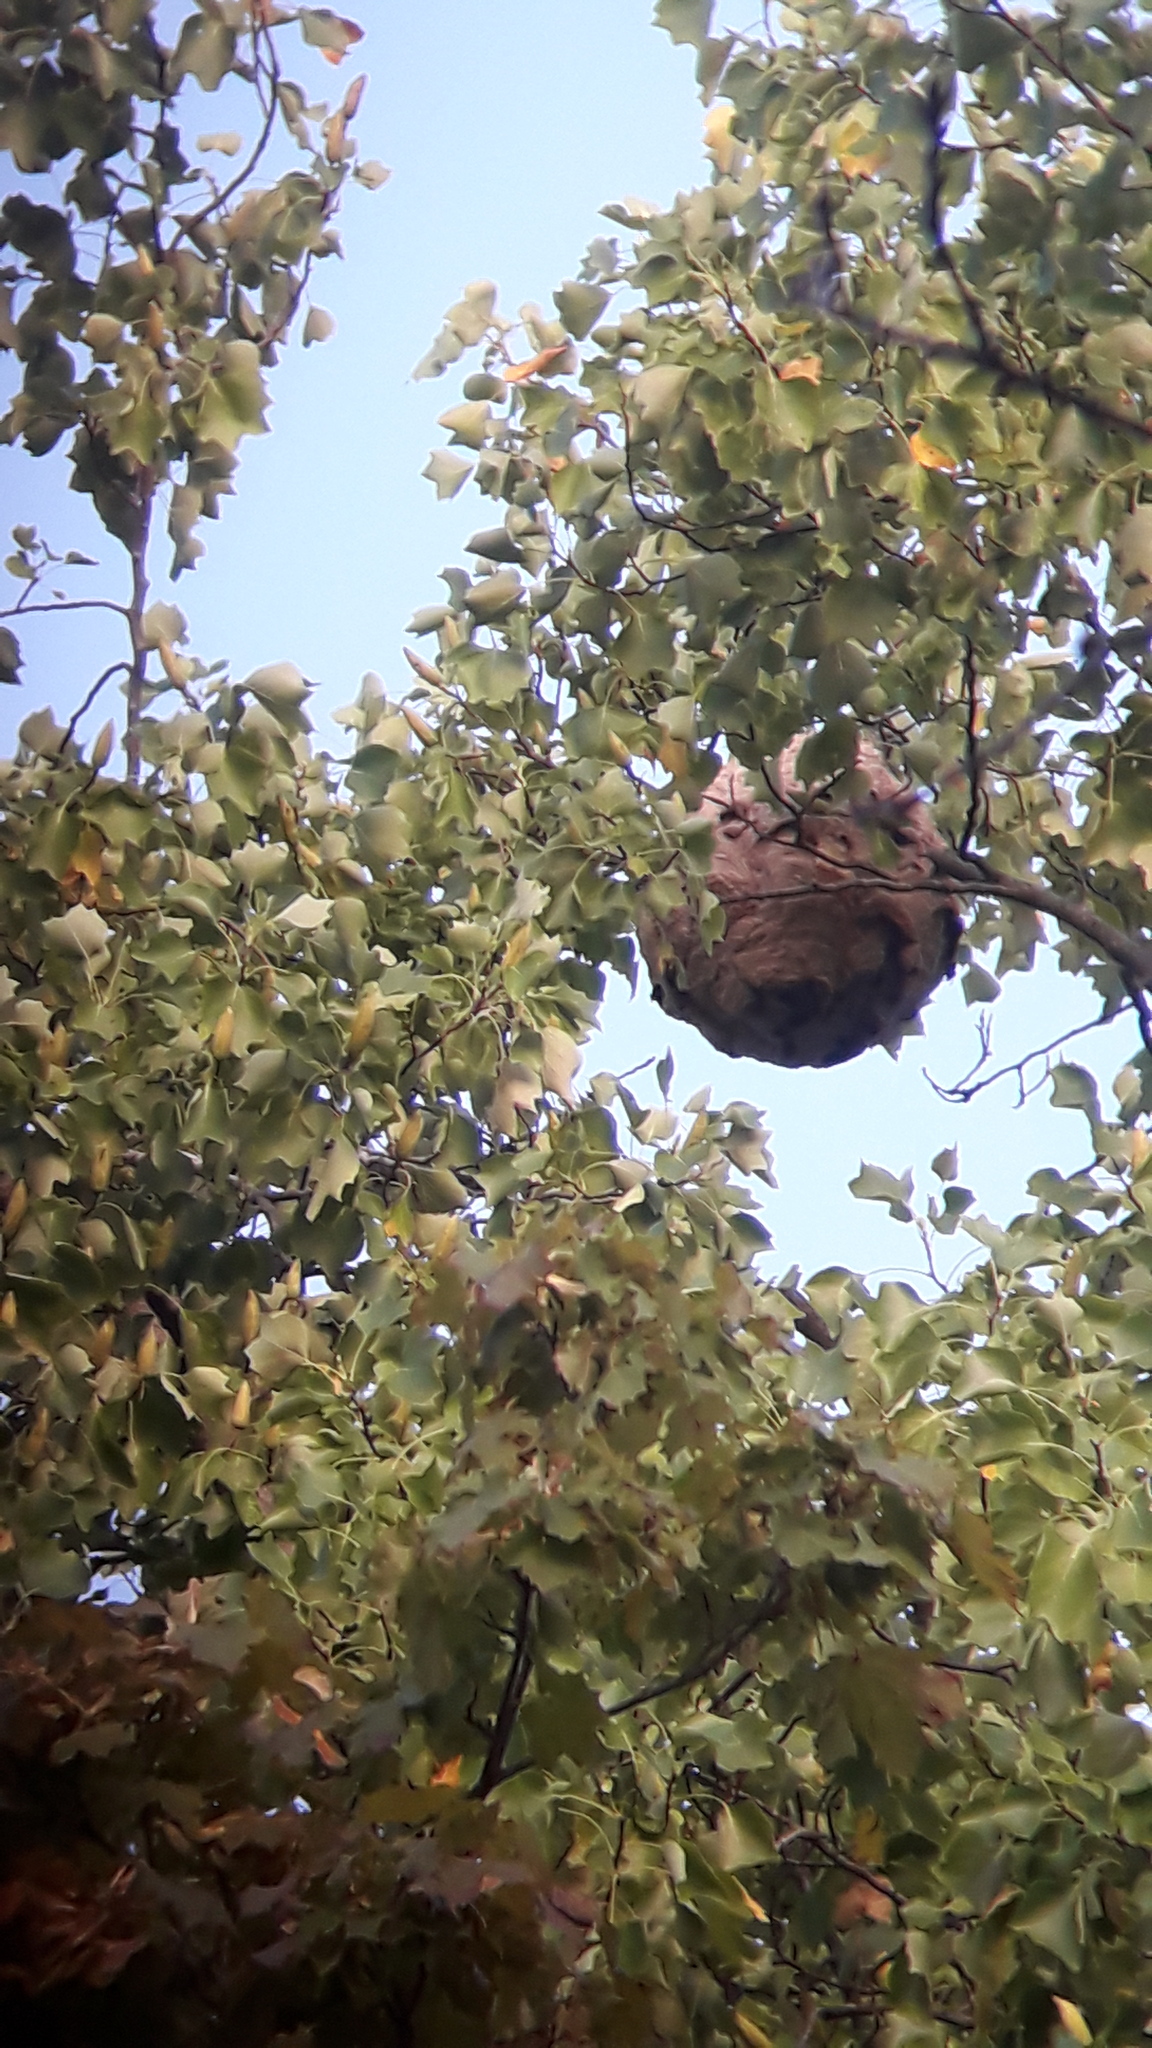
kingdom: Animalia
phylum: Arthropoda
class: Insecta
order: Hymenoptera
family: Vespidae
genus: Vespa
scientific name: Vespa velutina
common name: Asian hornet
